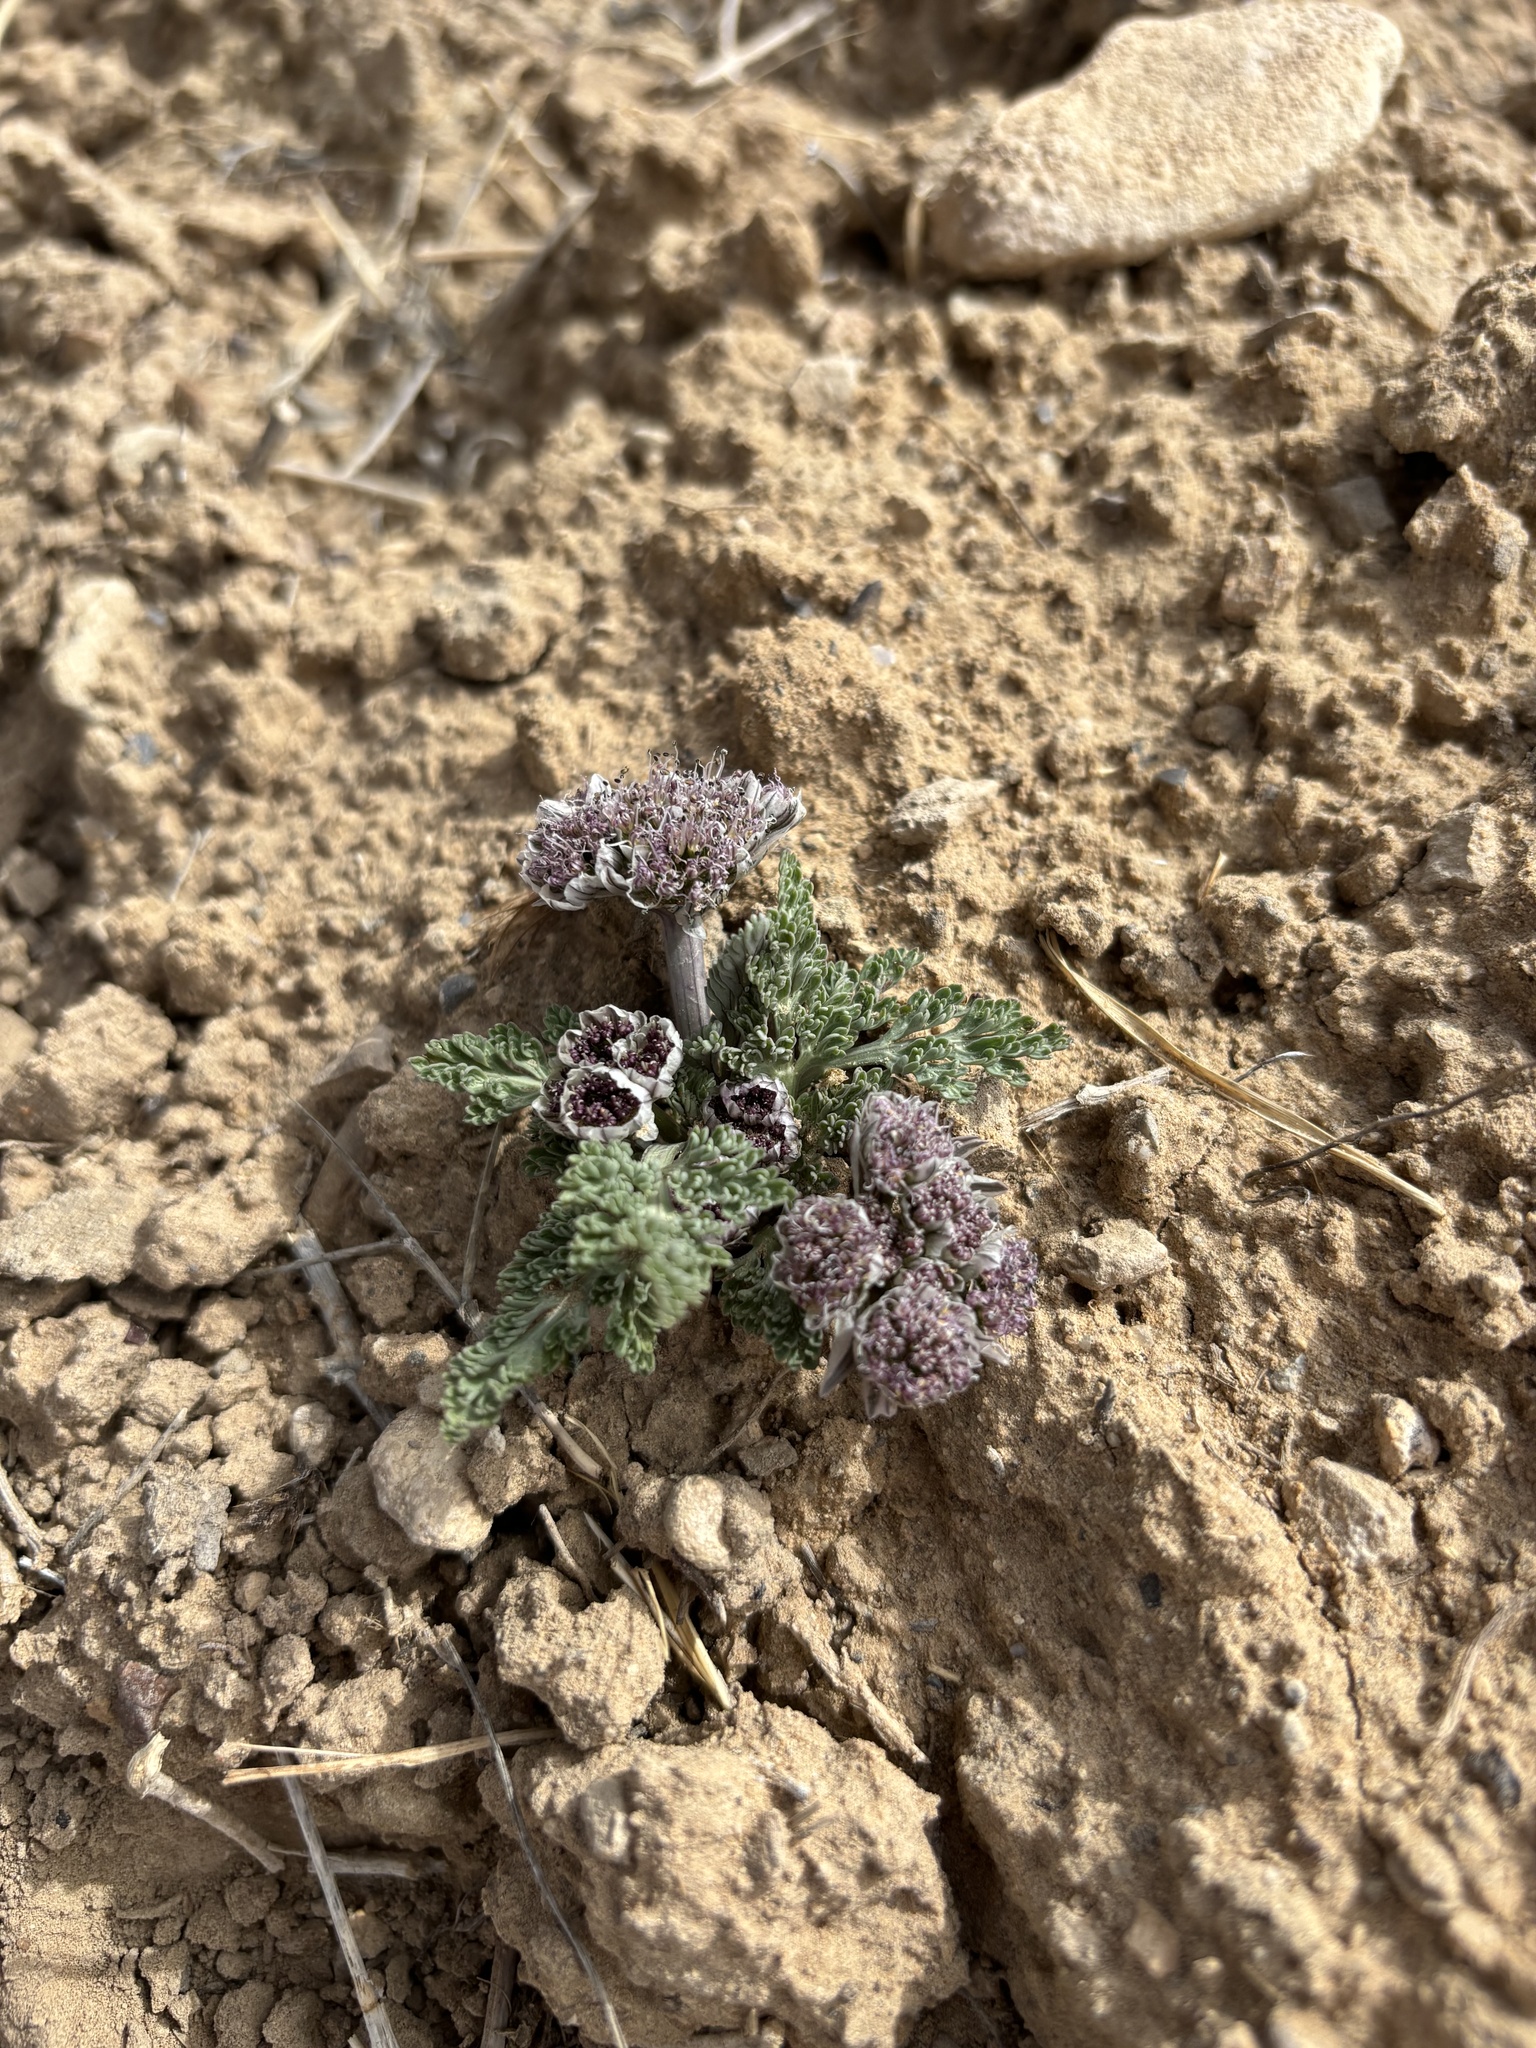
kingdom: Plantae
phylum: Tracheophyta
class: Magnoliopsida
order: Apiales
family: Apiaceae
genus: Vesper
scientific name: Vesper purpurascens
